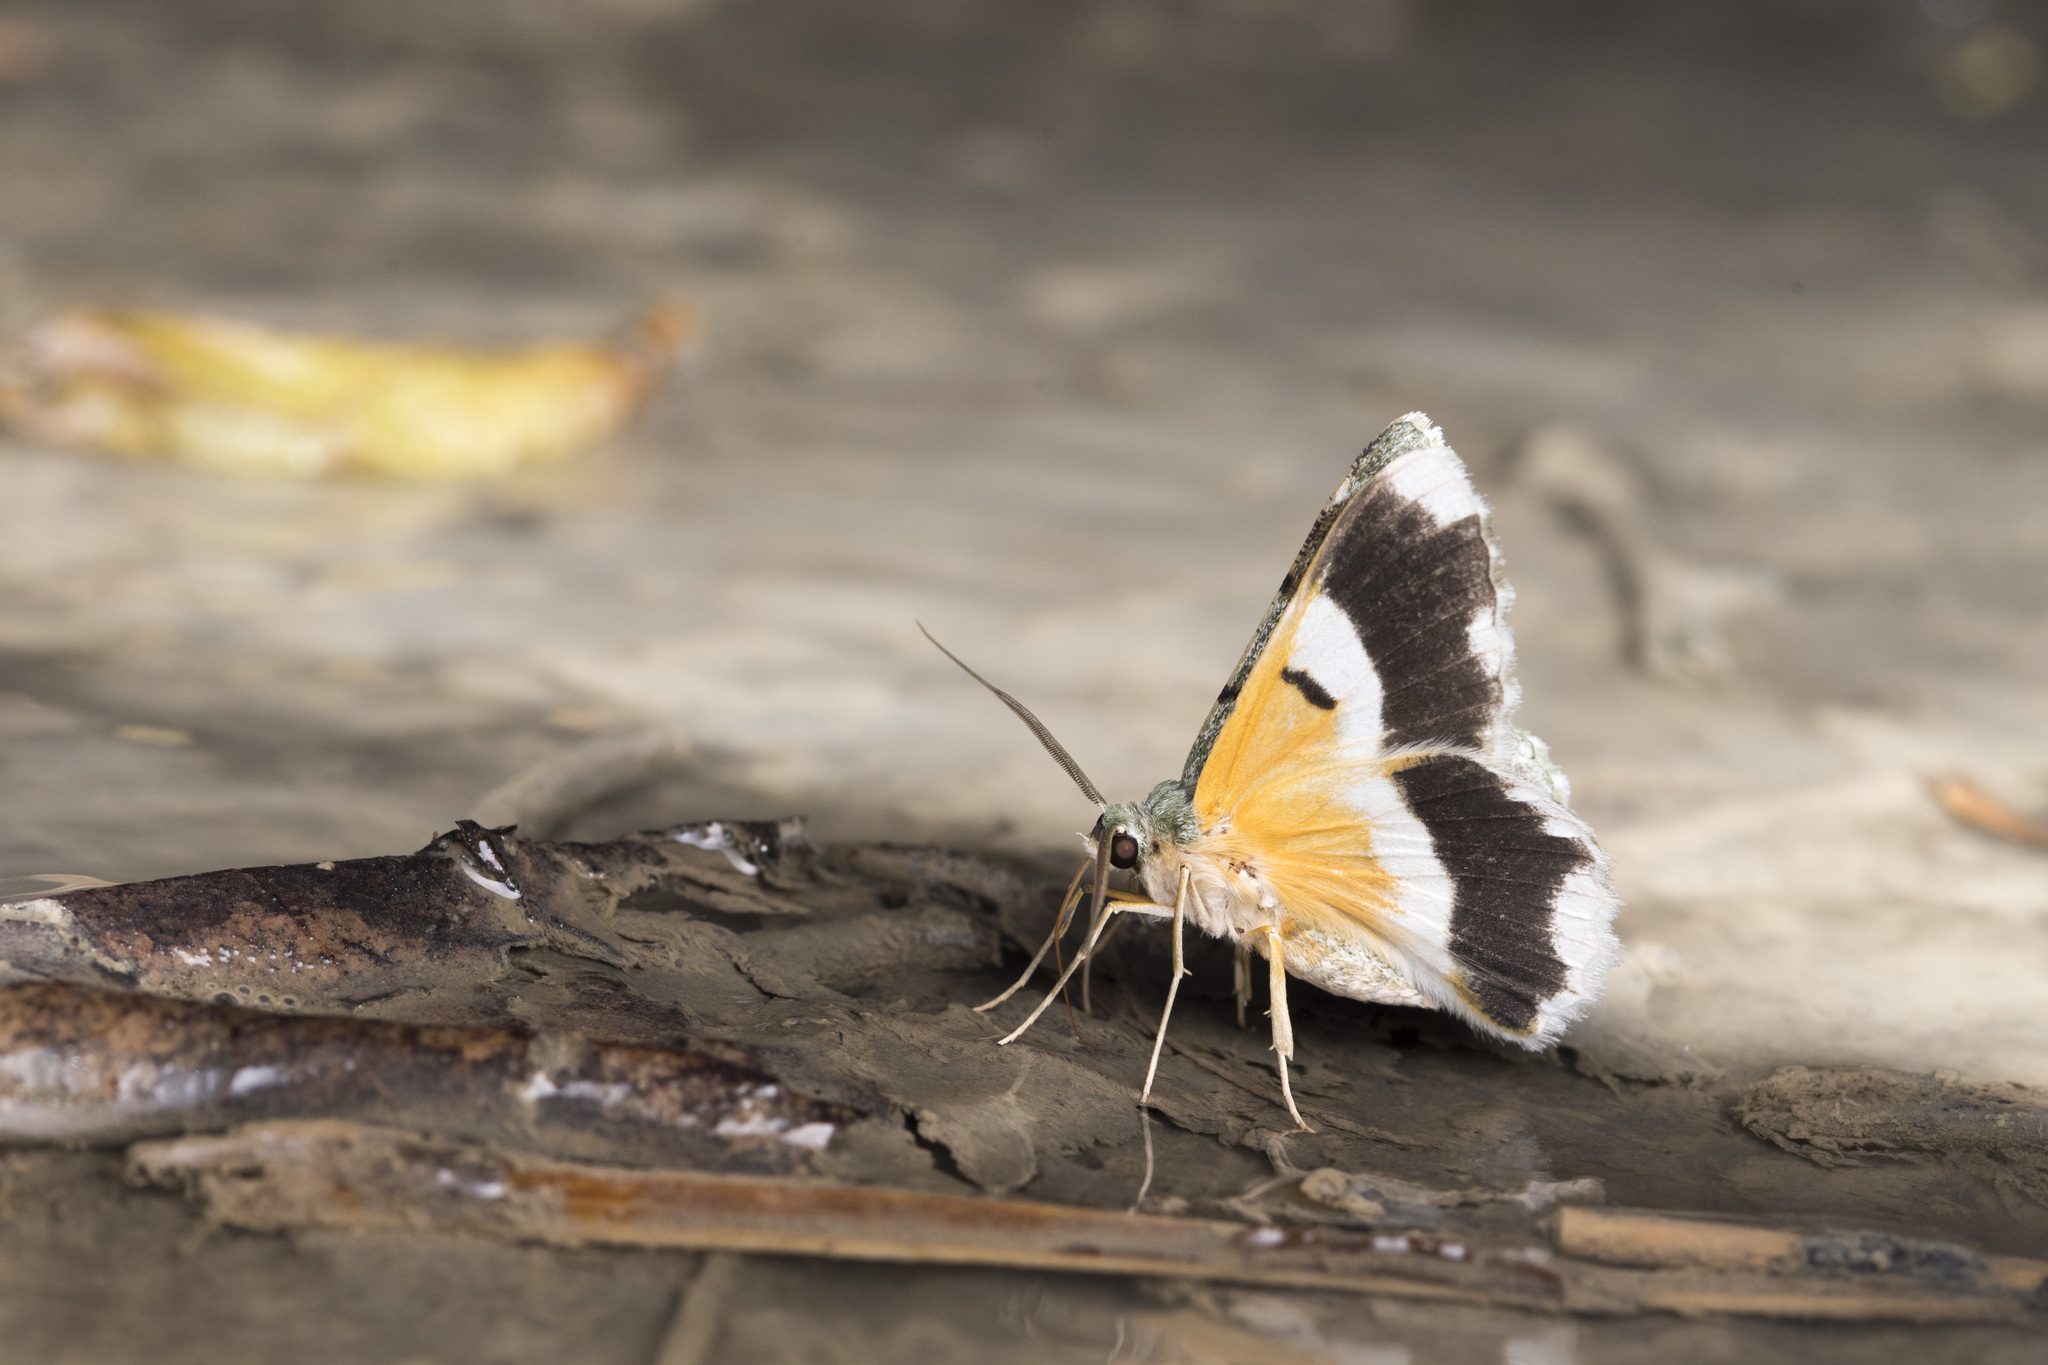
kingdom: Animalia
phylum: Arthropoda
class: Insecta
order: Lepidoptera
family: Geometridae
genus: Pingasa
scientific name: Pingasa ruginaria
